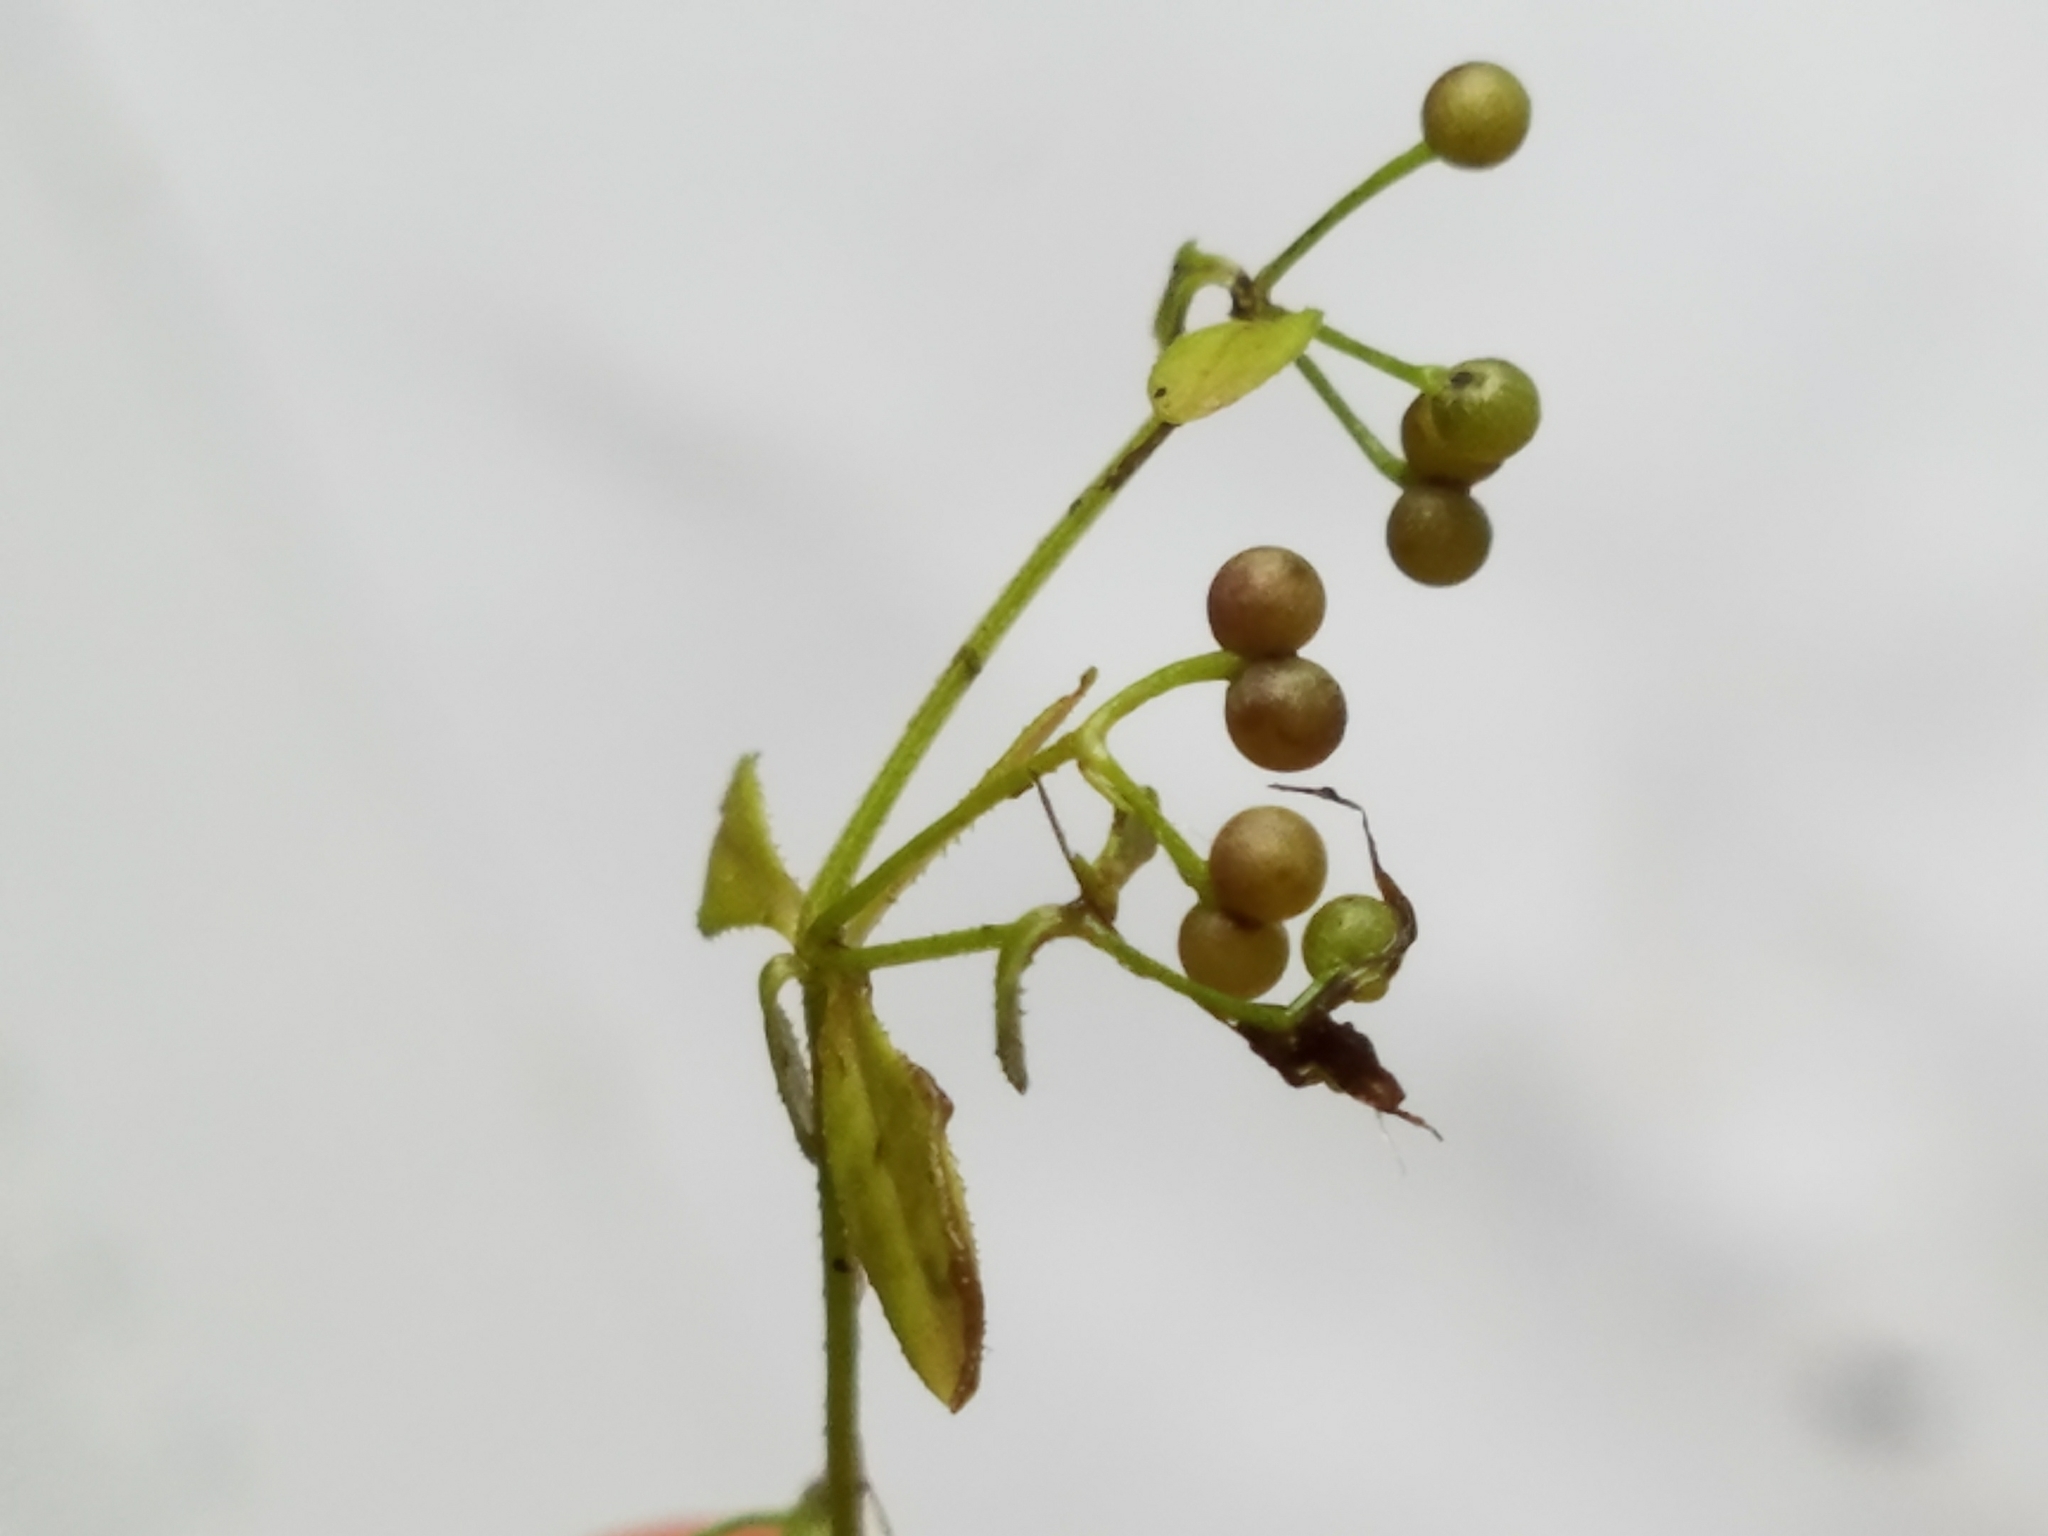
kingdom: Plantae
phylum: Tracheophyta
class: Magnoliopsida
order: Gentianales
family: Rubiaceae
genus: Galium
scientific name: Galium tinctorium
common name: Bedstraw
